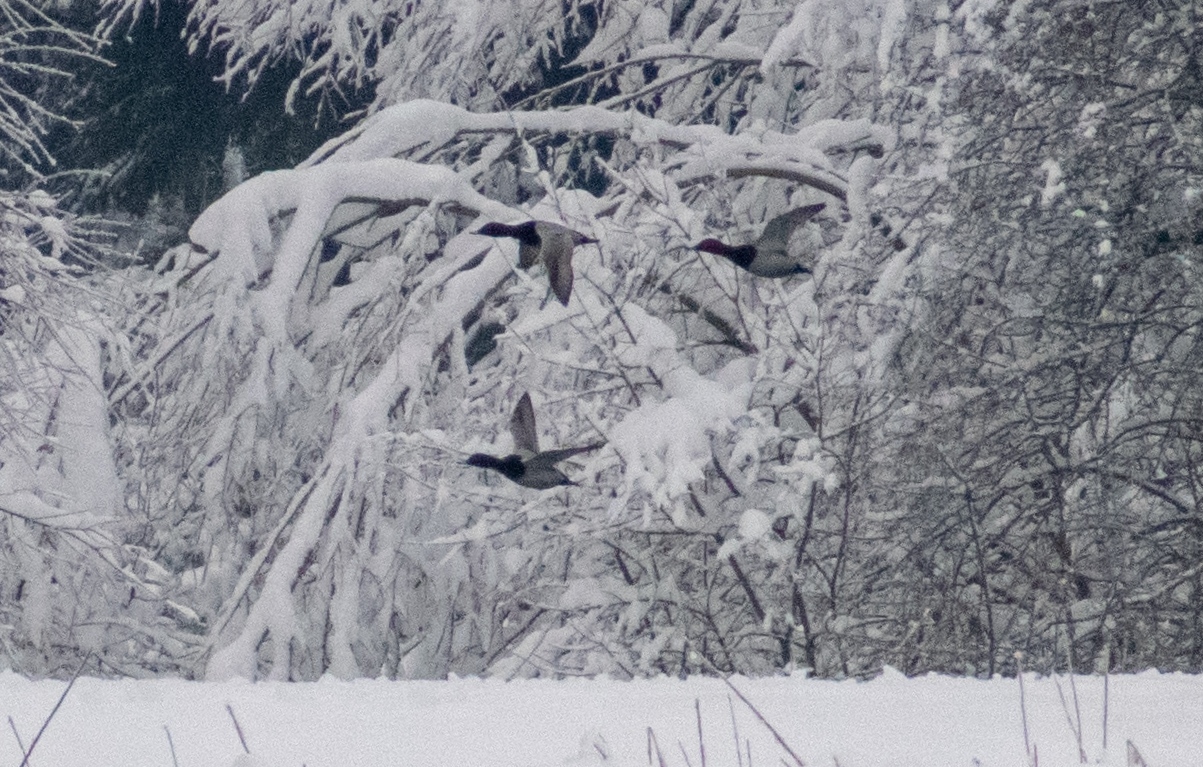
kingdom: Animalia
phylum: Chordata
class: Aves
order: Anseriformes
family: Anatidae
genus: Aythya
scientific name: Aythya ferina
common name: Common pochard
